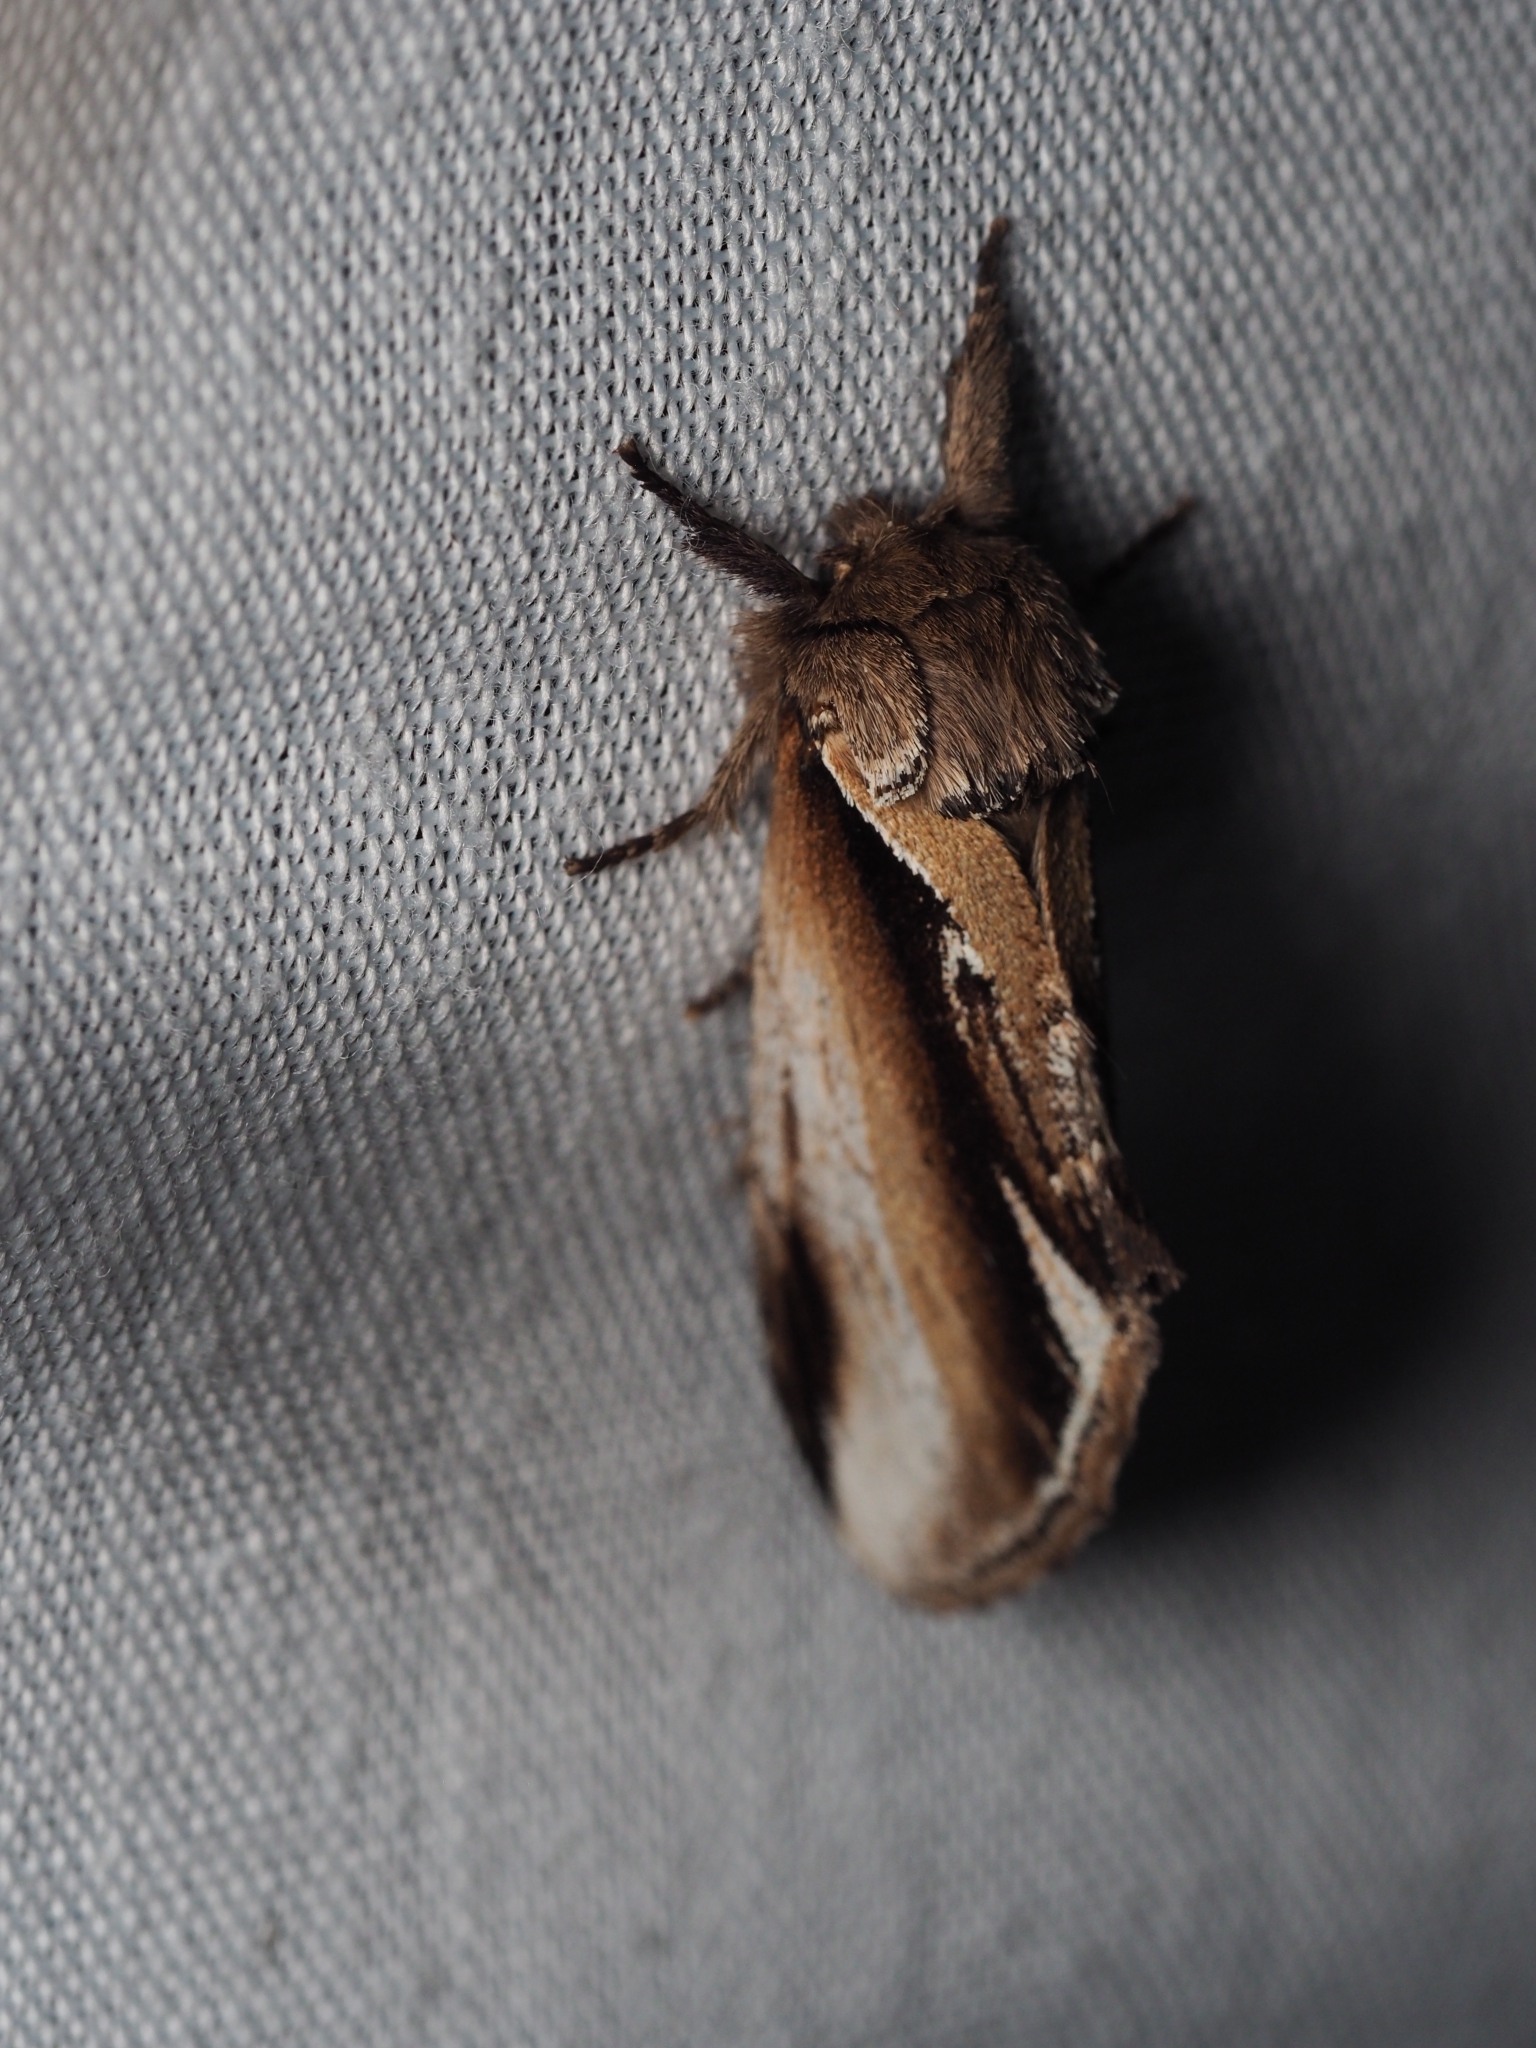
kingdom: Animalia
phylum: Arthropoda
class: Insecta
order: Lepidoptera
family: Notodontidae
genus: Pheosia
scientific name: Pheosia gnoma
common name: Lesser swallow prominent
